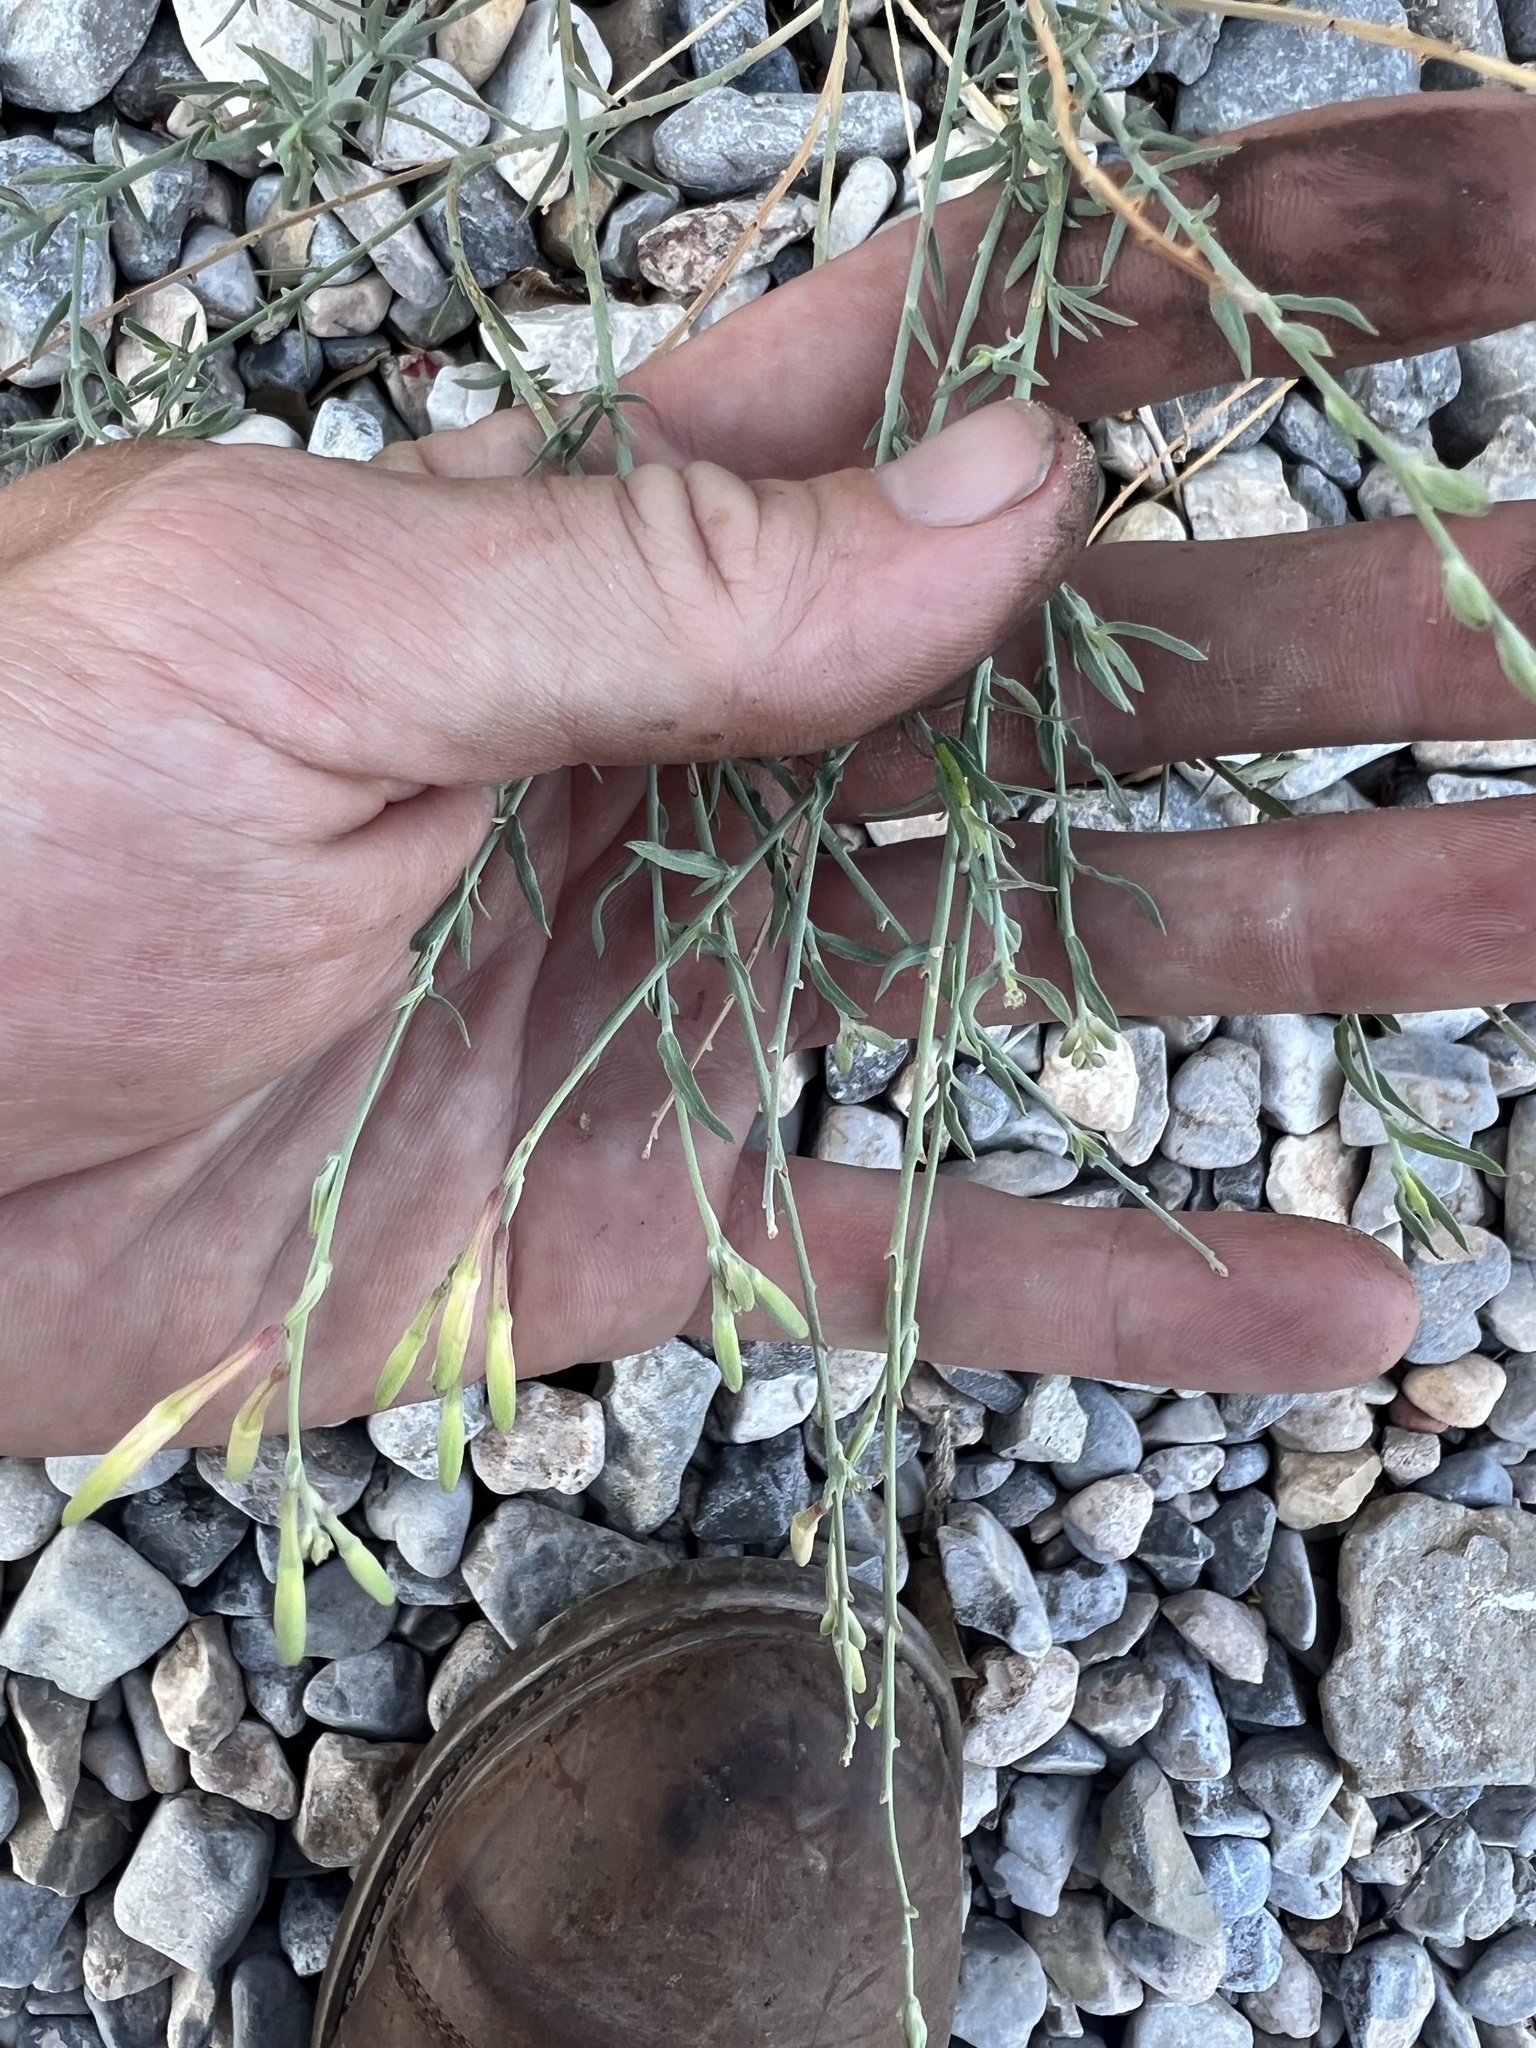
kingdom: Plantae
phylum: Tracheophyta
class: Magnoliopsida
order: Myrtales
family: Onagraceae
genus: Oenothera
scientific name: Oenothera suffrutescens
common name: Scarlet beeblossom
